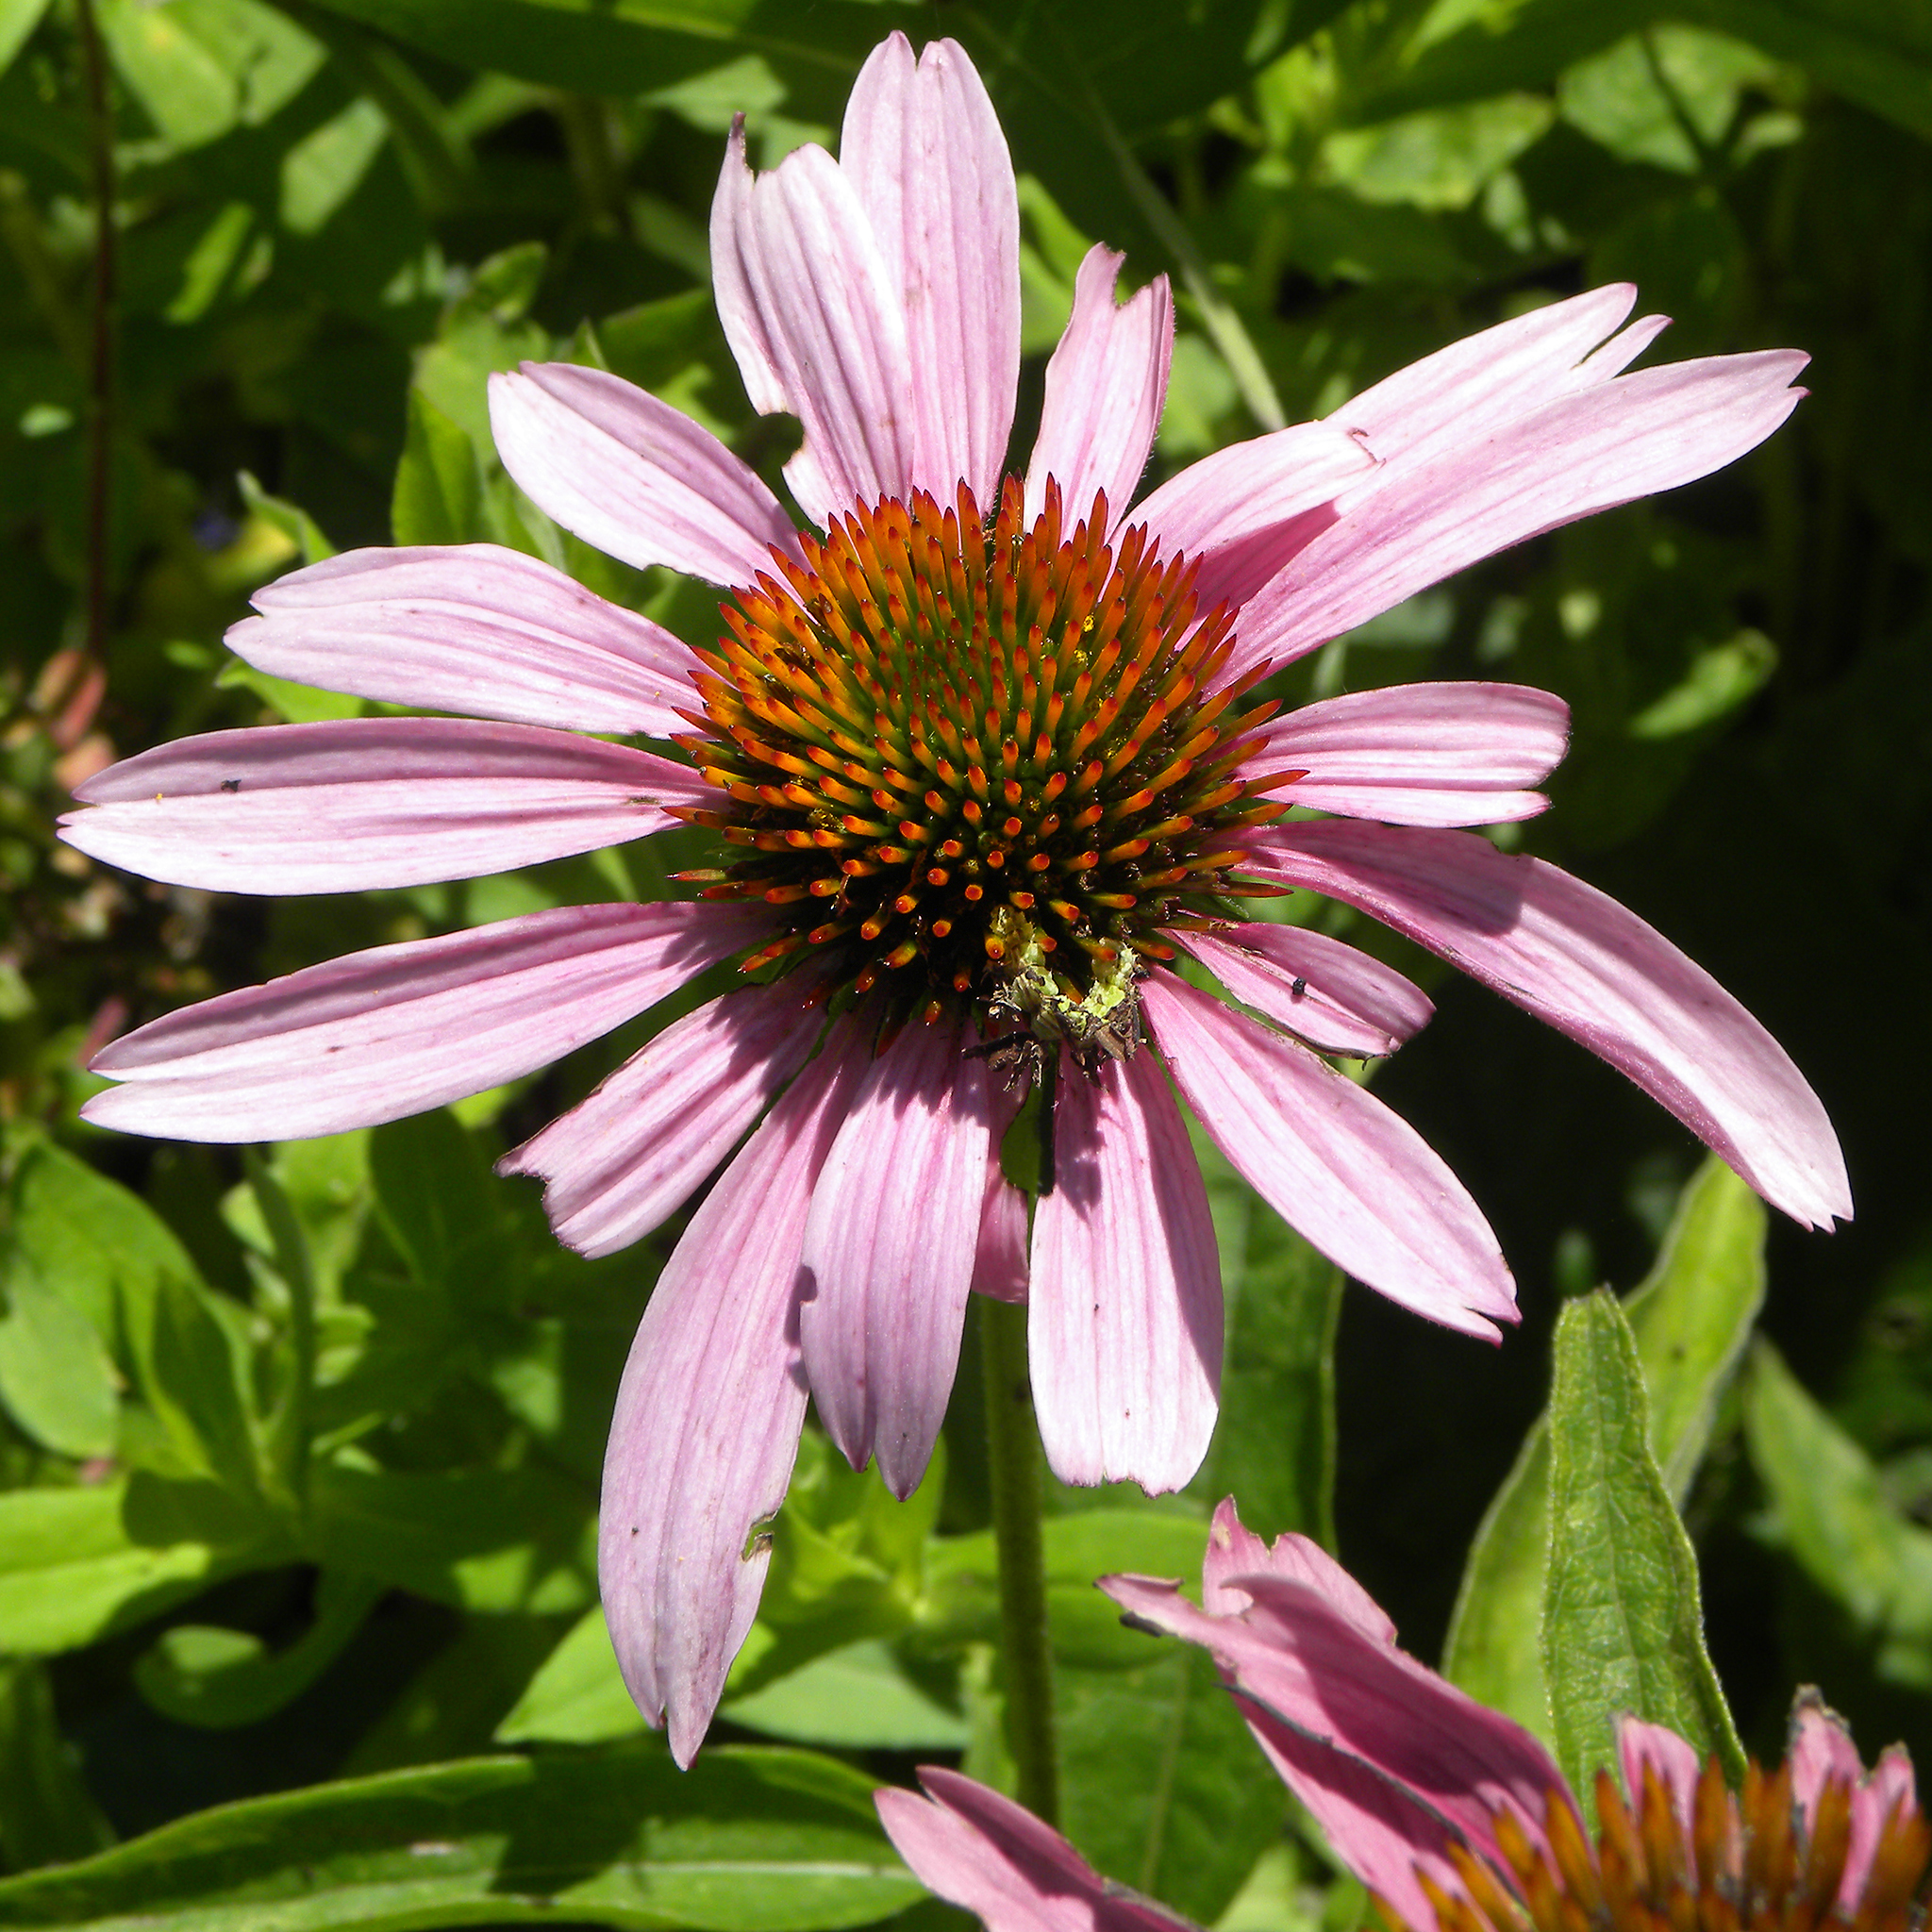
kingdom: Animalia
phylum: Arthropoda
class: Insecta
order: Lepidoptera
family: Geometridae
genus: Synchlora
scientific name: Synchlora
